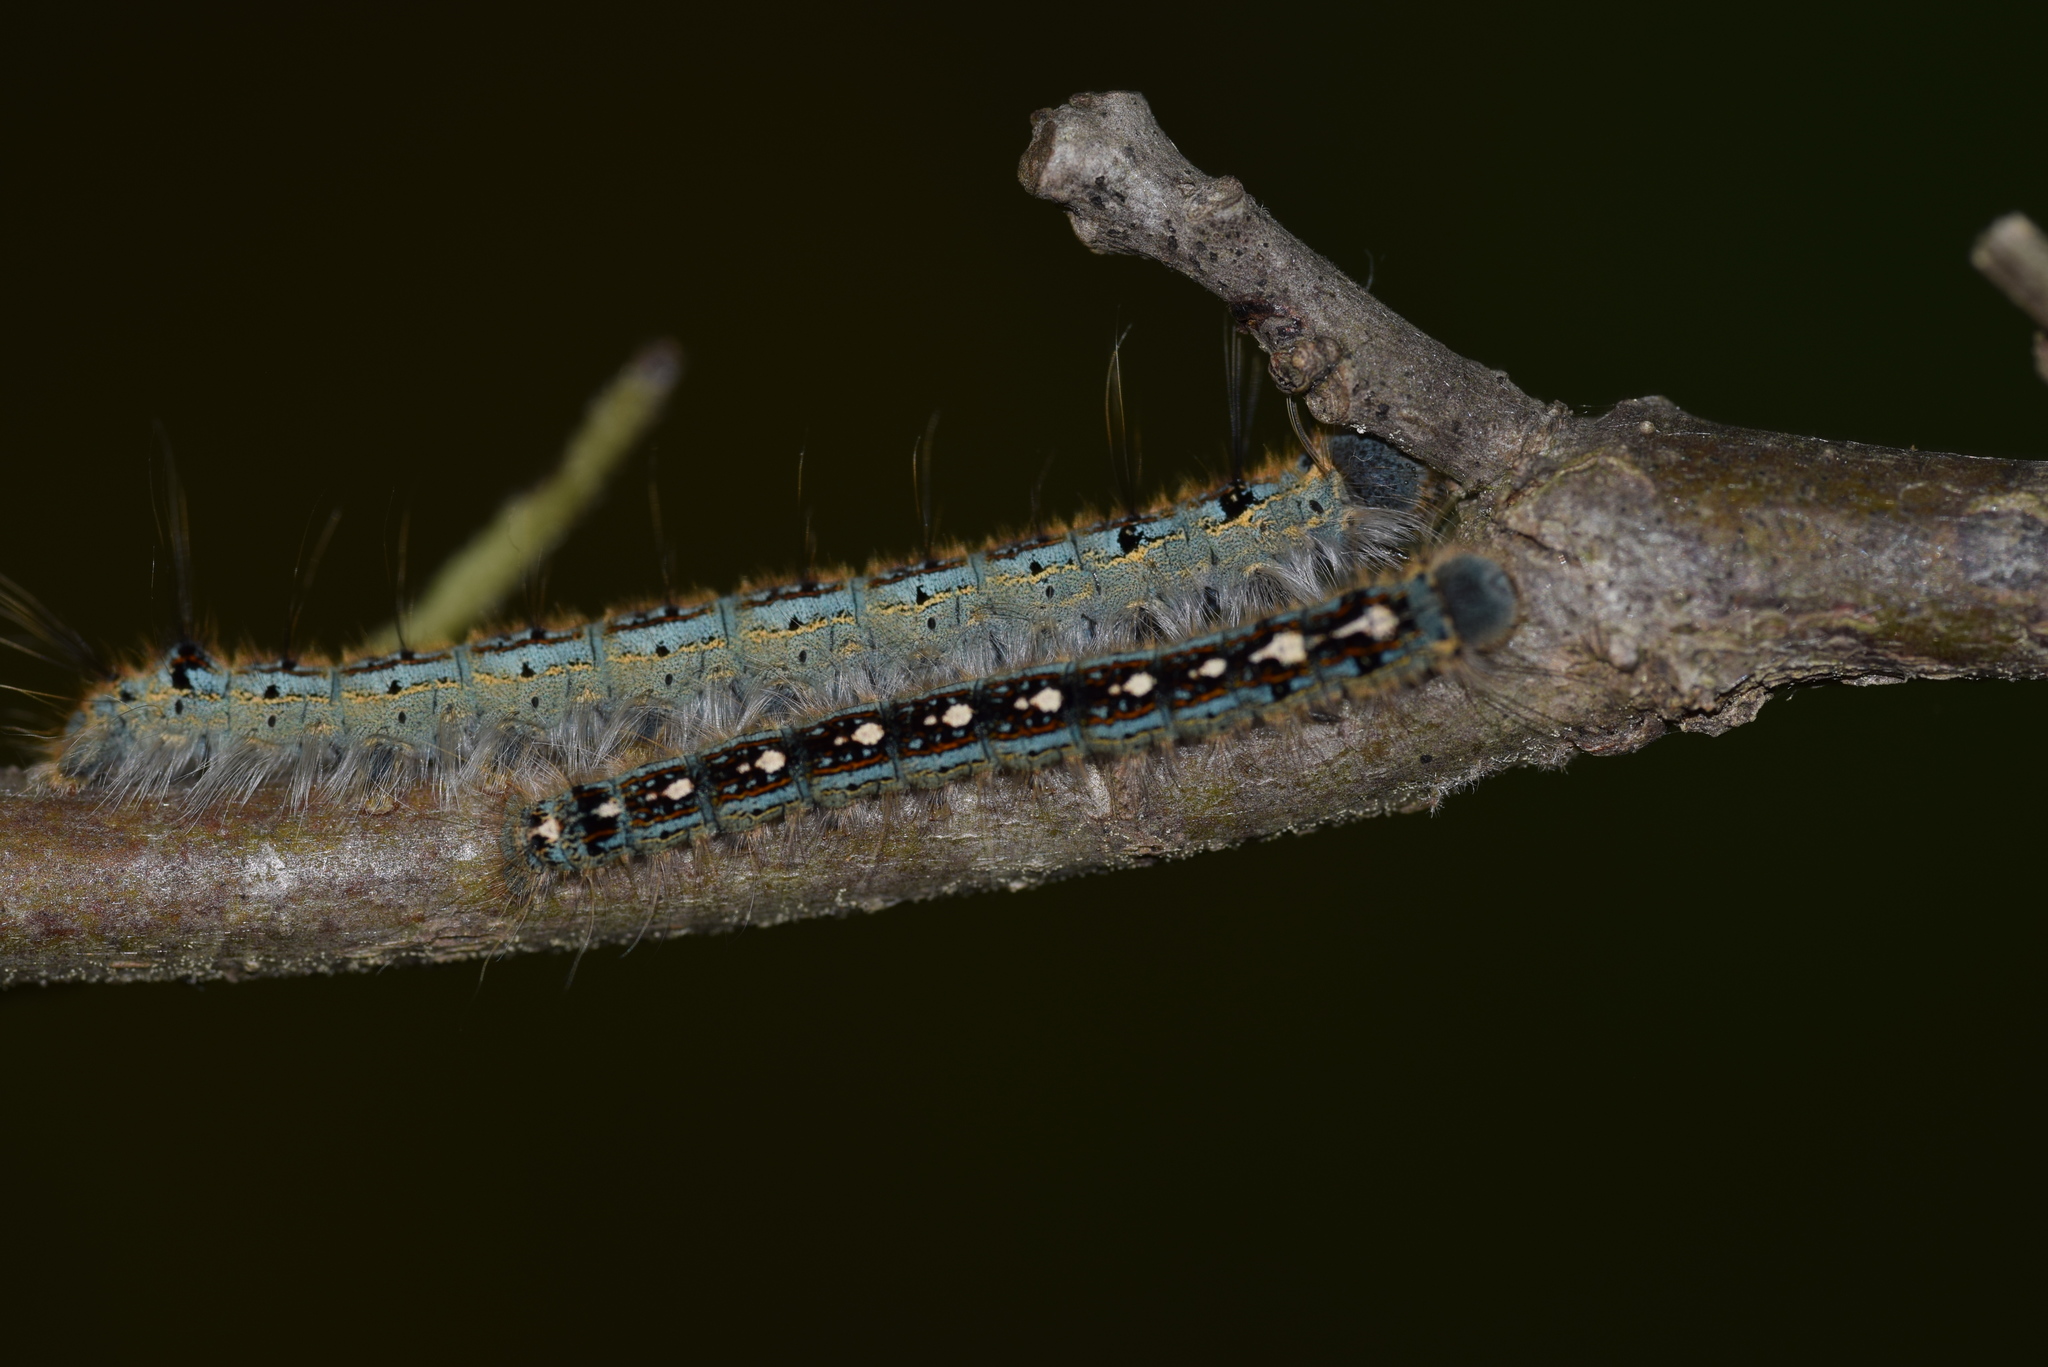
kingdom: Animalia
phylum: Arthropoda
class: Insecta
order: Lepidoptera
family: Lasiocampidae
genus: Malacosoma
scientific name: Malacosoma disstria
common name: Forest tent caterpillar
